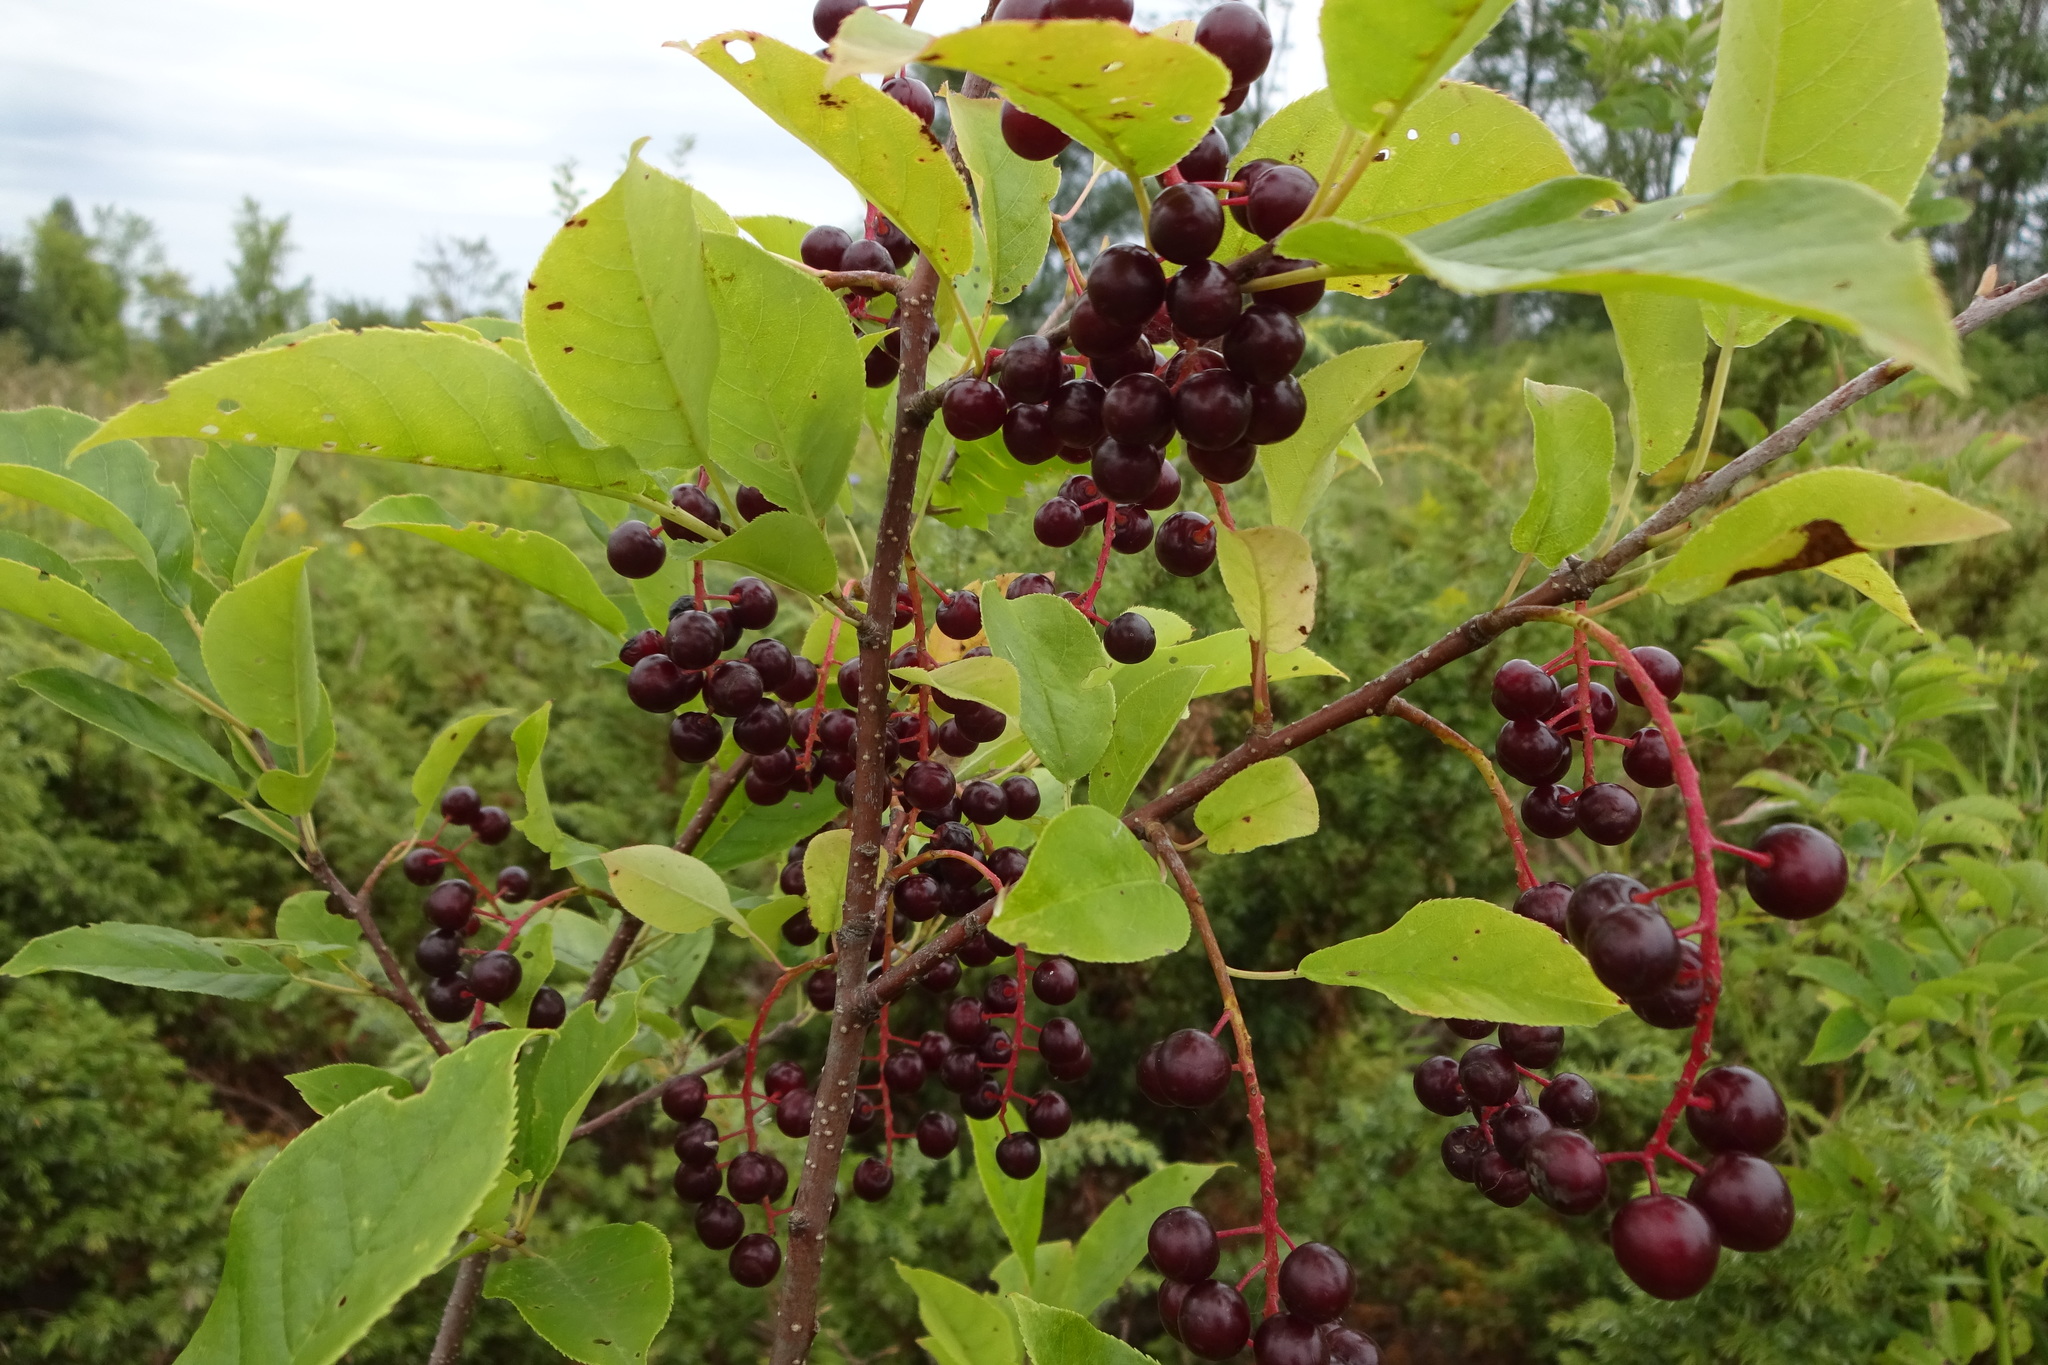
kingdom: Plantae
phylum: Tracheophyta
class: Magnoliopsida
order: Rosales
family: Rosaceae
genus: Prunus
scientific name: Prunus virginiana
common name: Chokecherry
